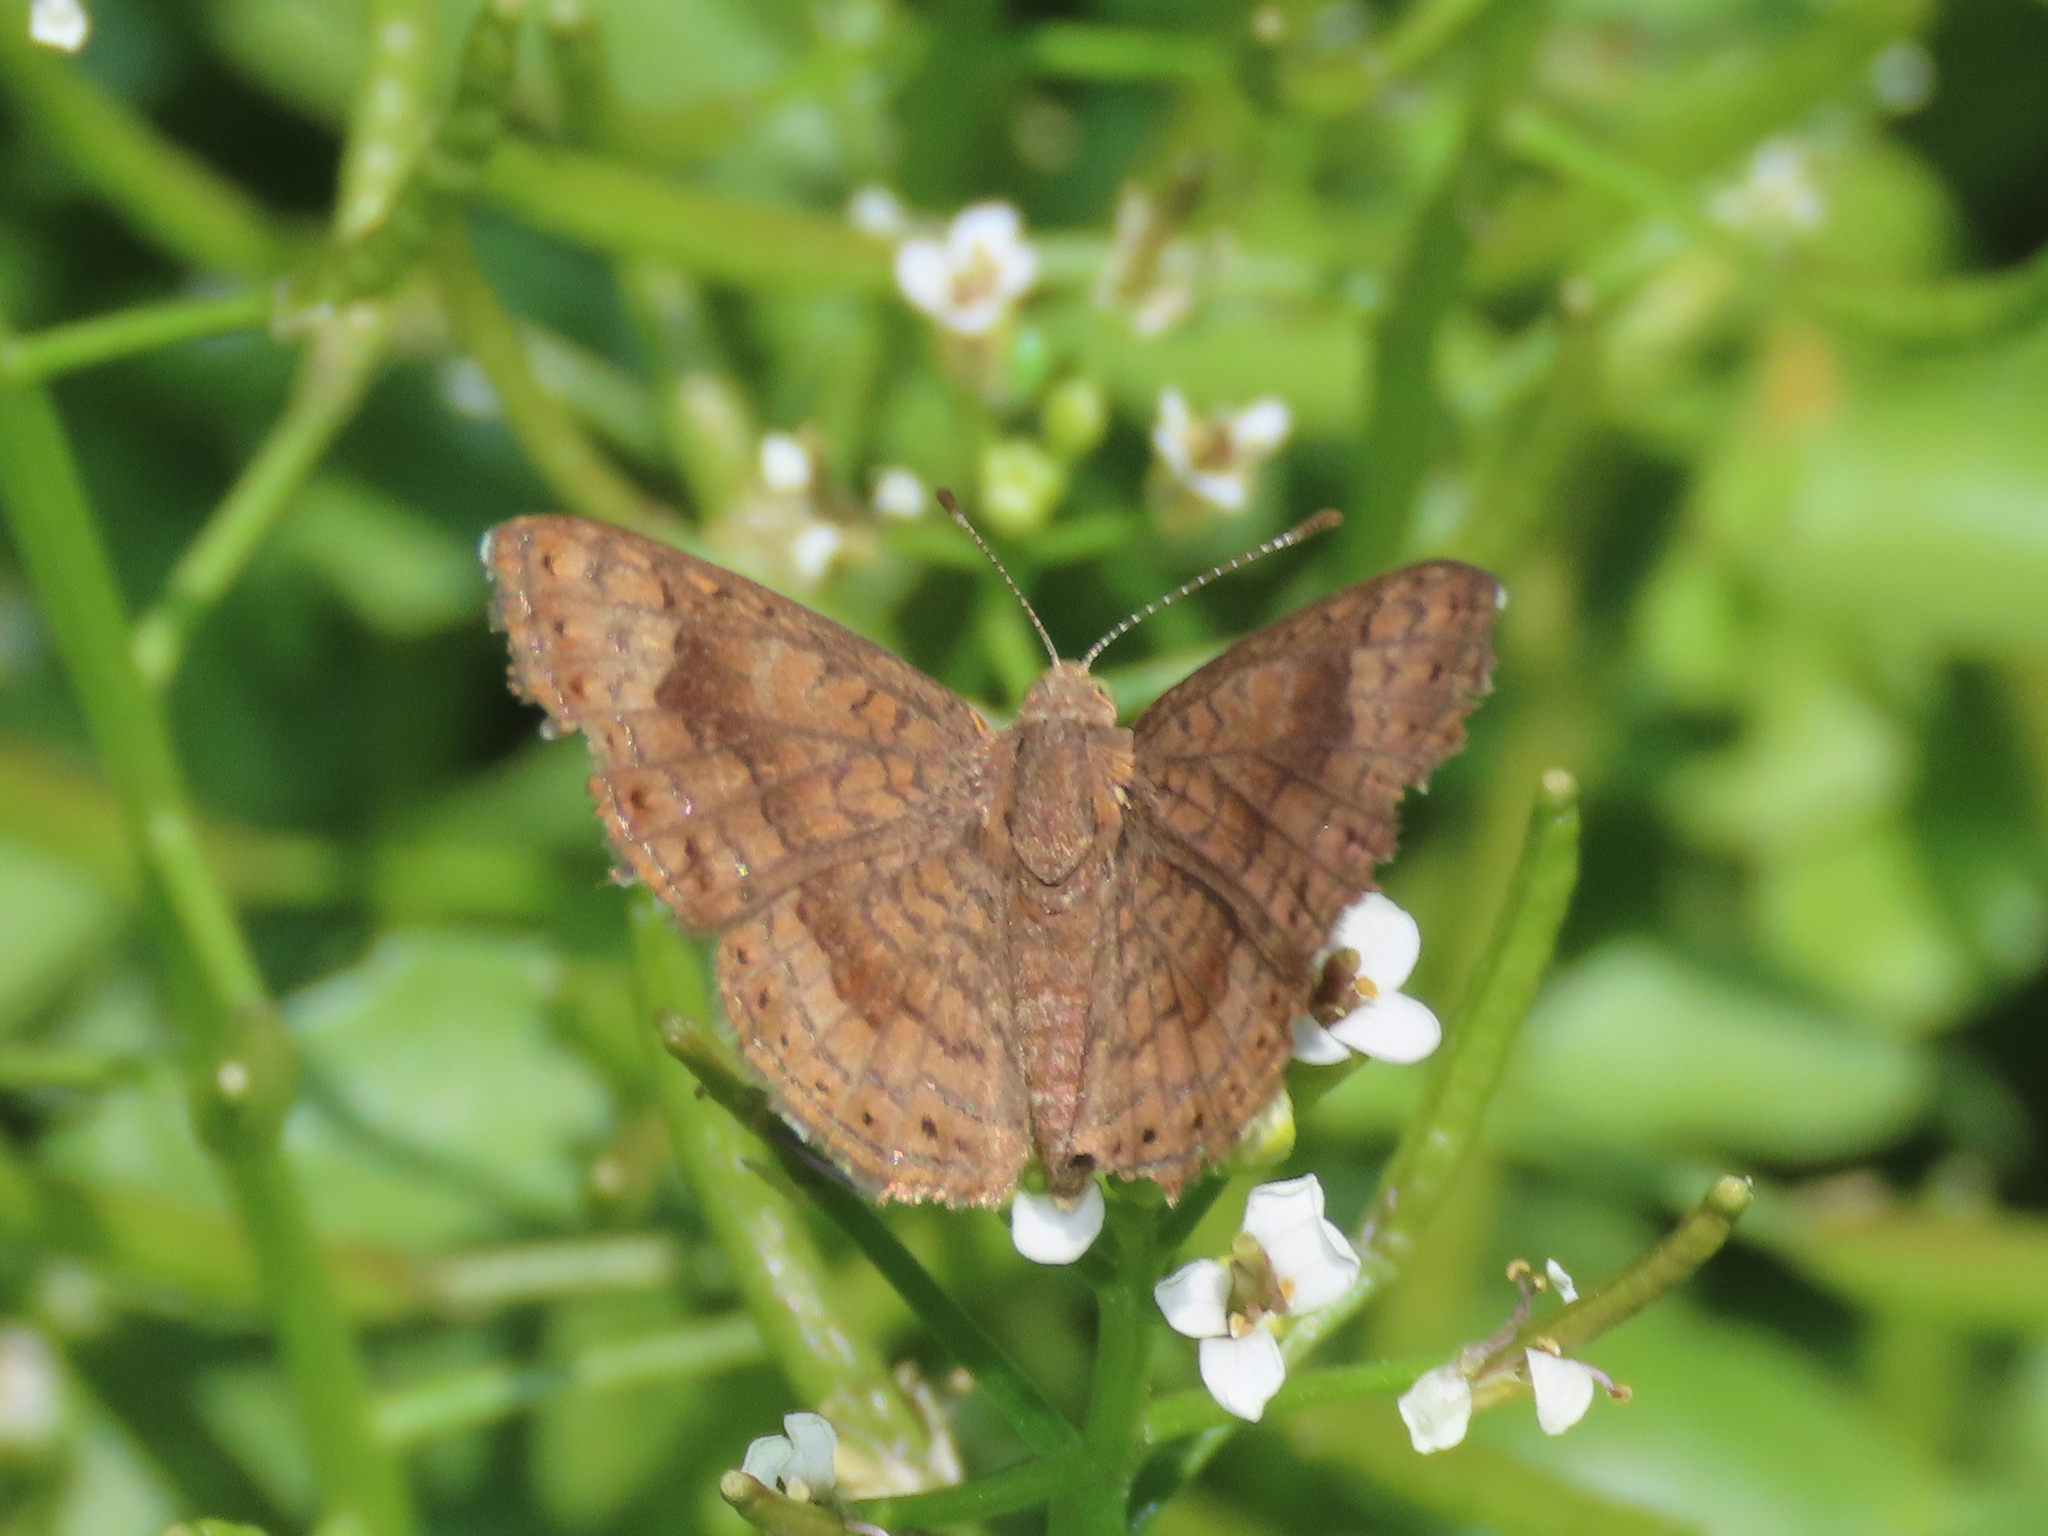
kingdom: Animalia
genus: Calephelis
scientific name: Calephelis nemesis
